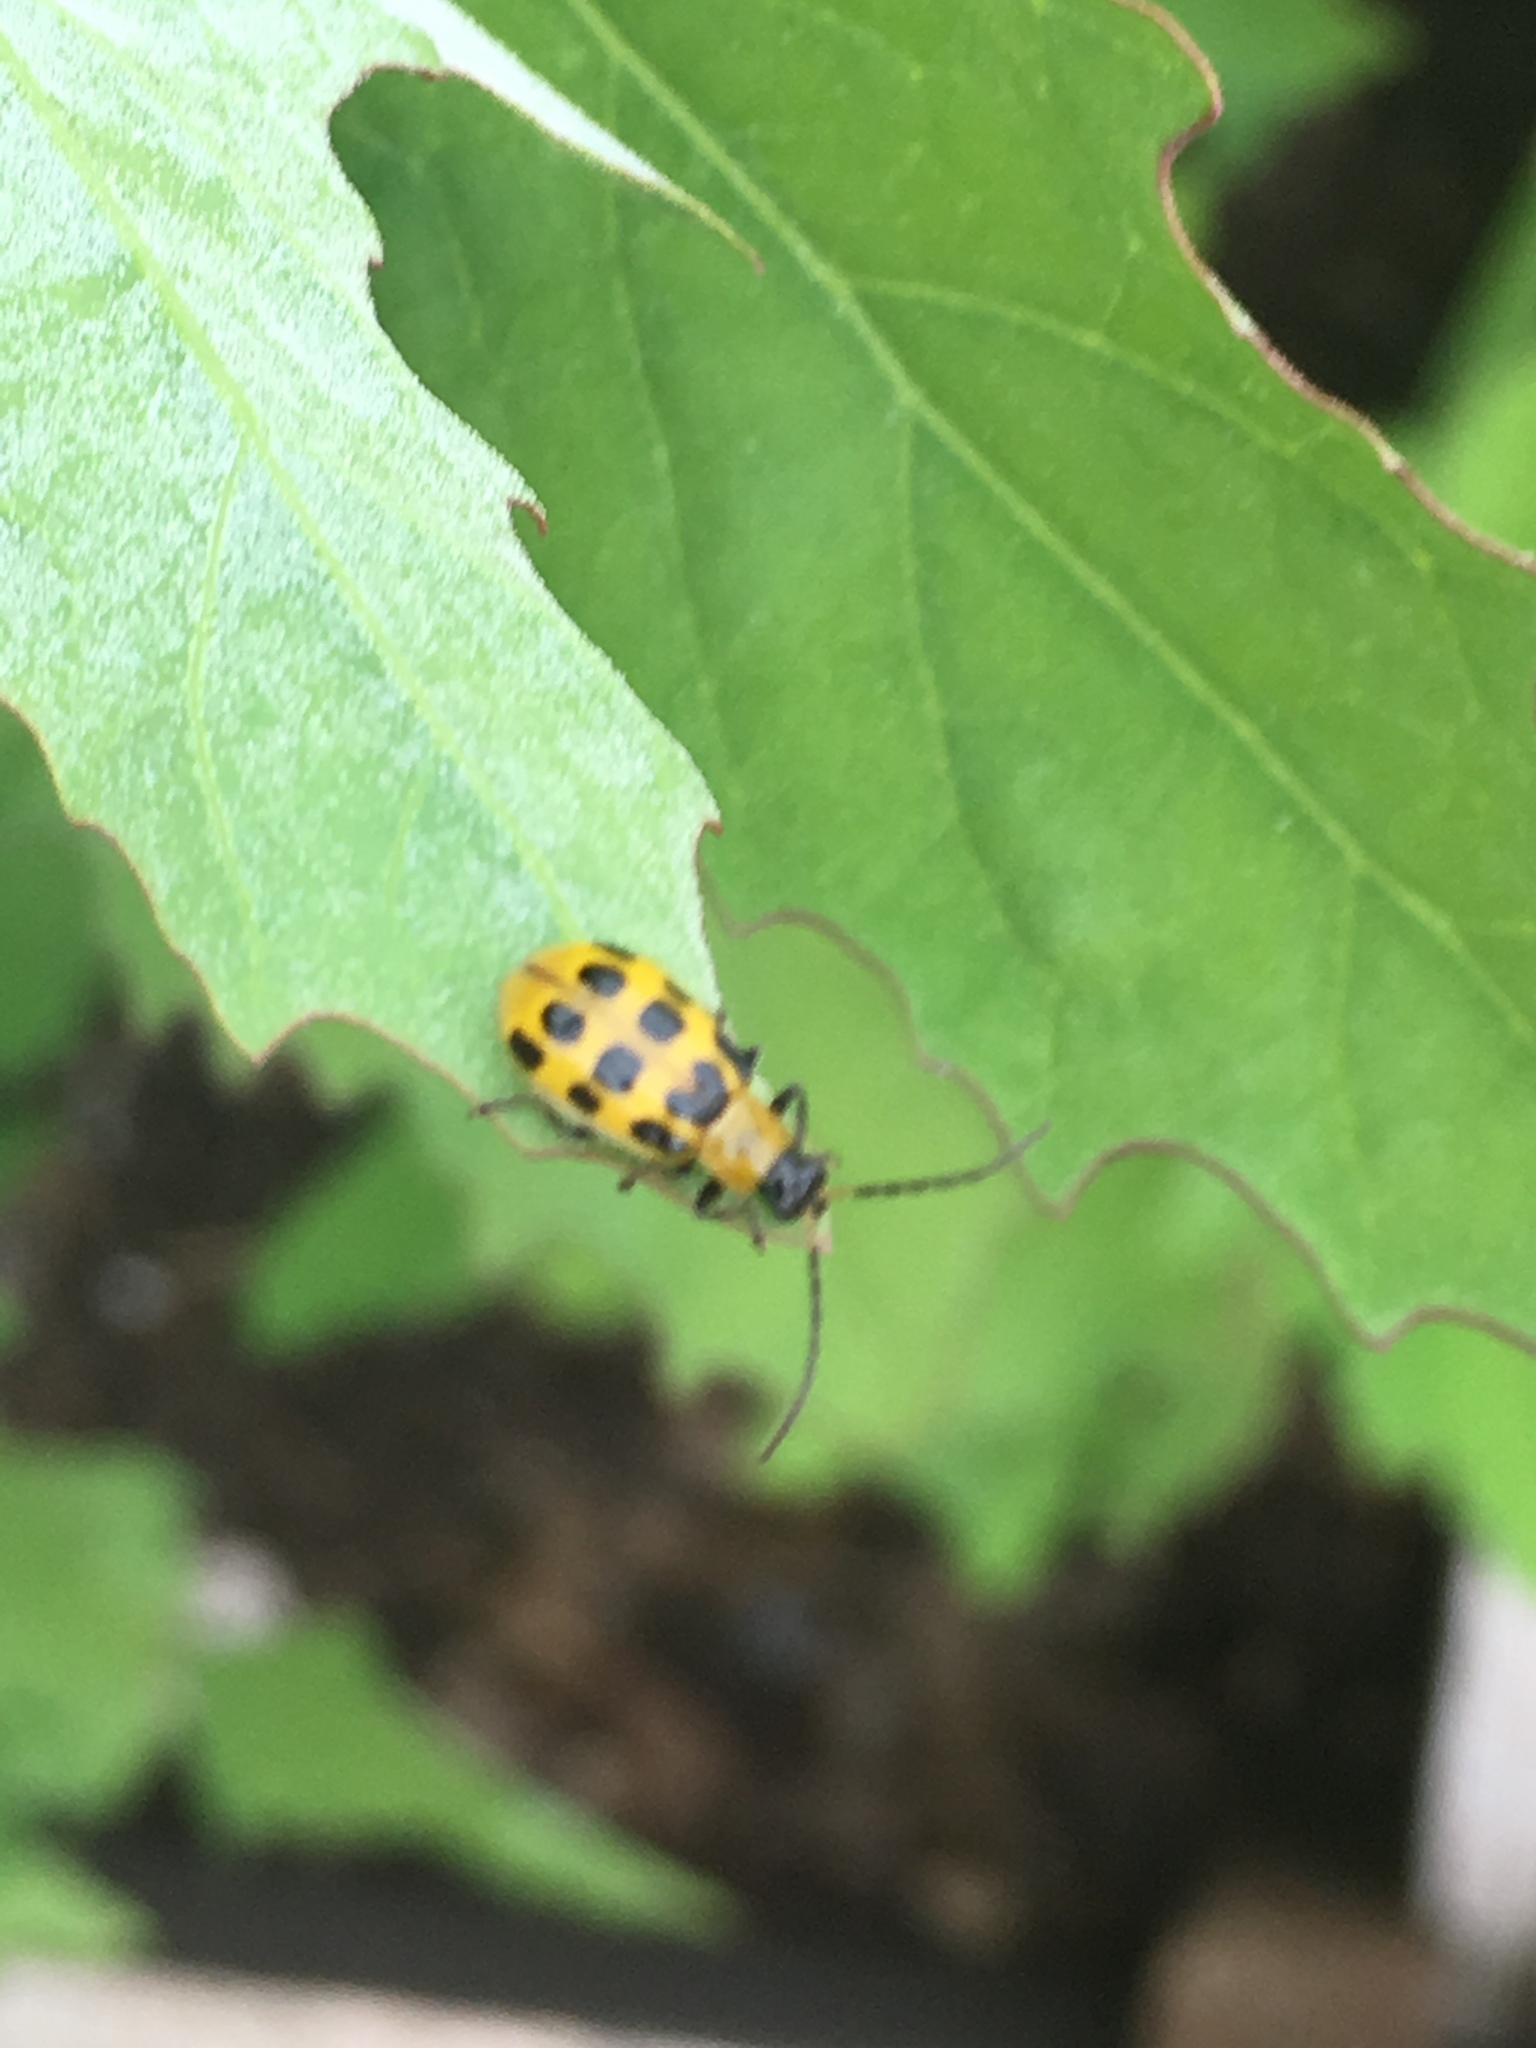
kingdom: Animalia
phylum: Arthropoda
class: Insecta
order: Coleoptera
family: Chrysomelidae
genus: Diabrotica
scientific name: Diabrotica undecimpunctata
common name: Spotted cucumber beetle
